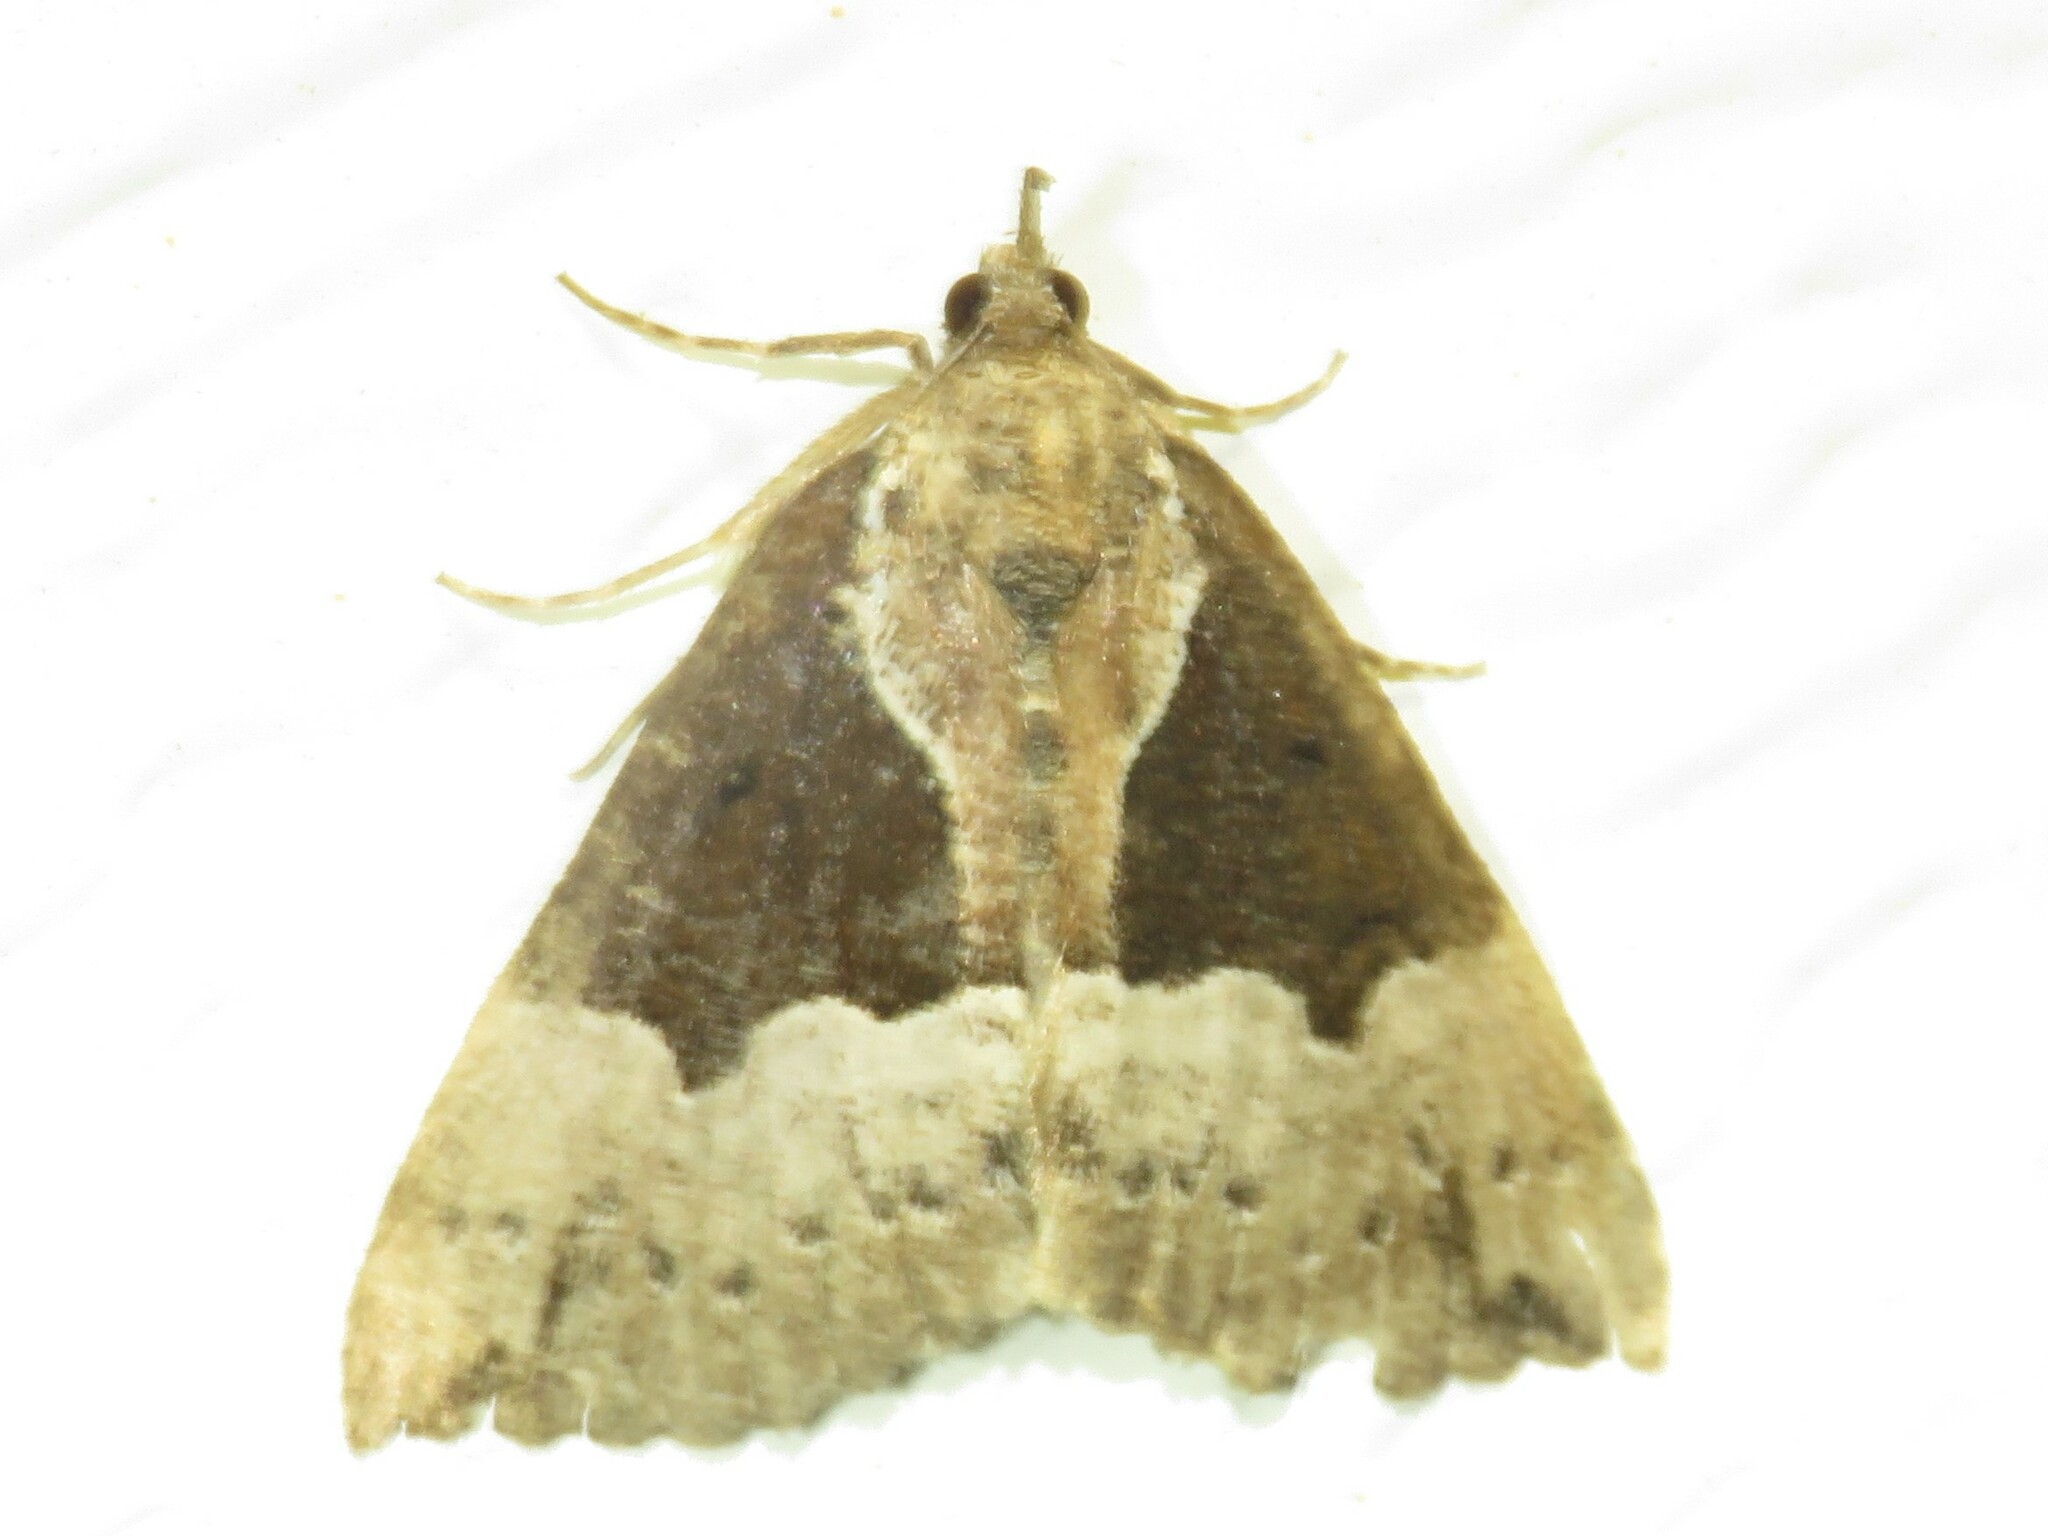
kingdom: Animalia
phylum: Arthropoda
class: Insecta
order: Lepidoptera
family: Erebidae
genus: Hypena
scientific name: Hypena bijugalis
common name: Dimorphic bomolocha moth
